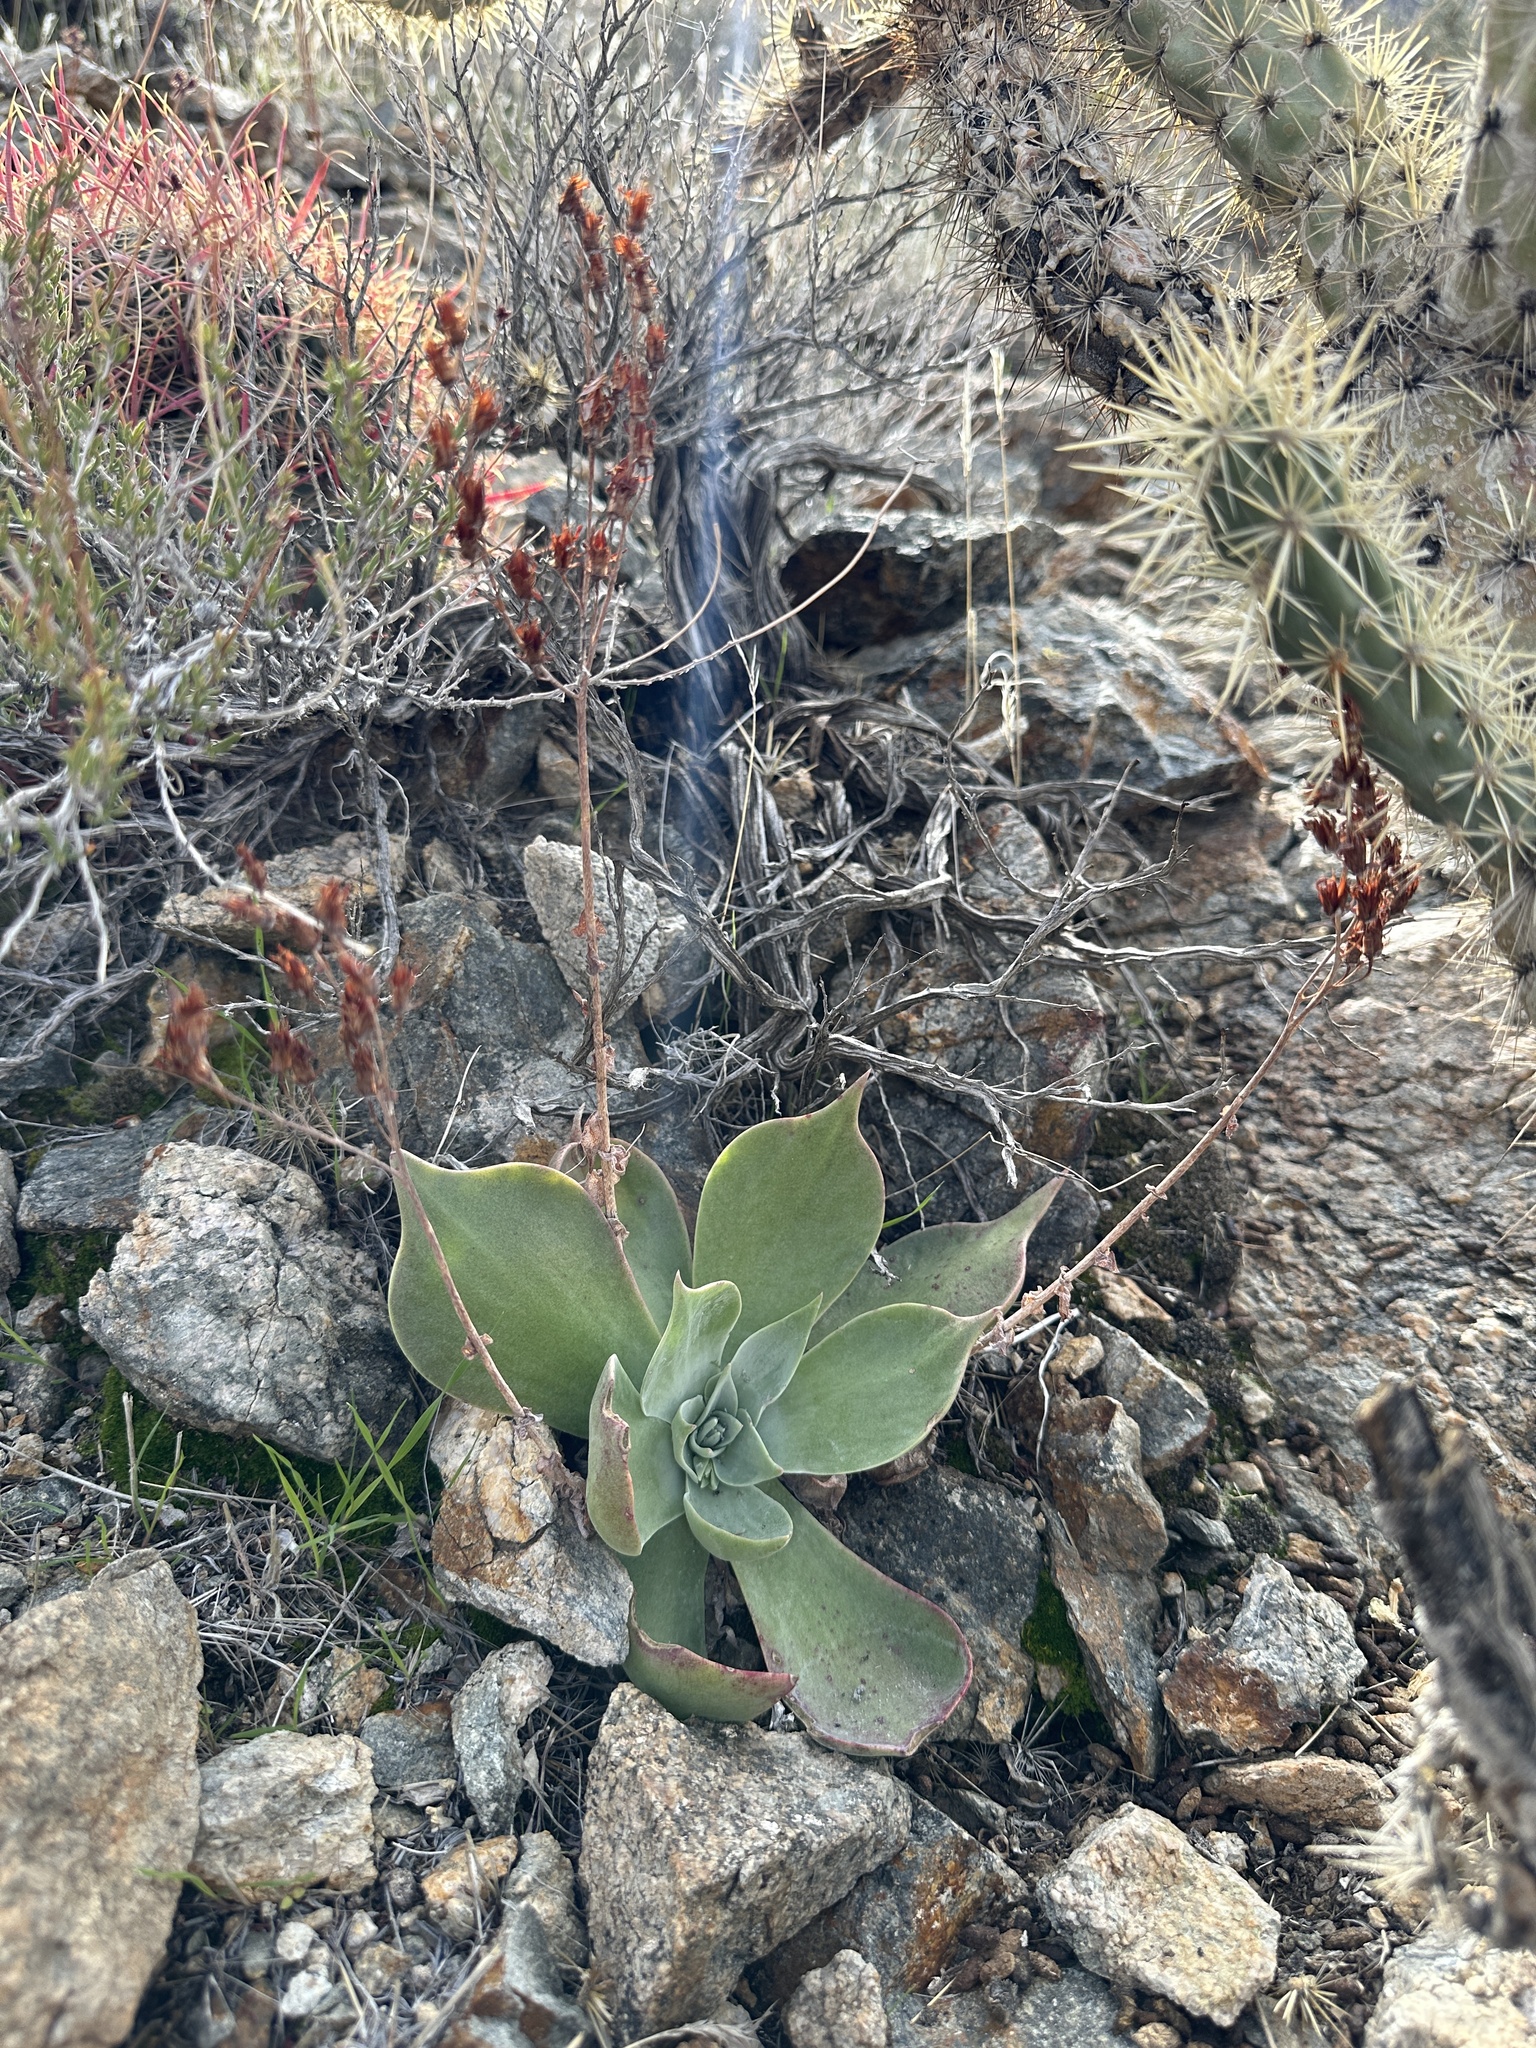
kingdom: Plantae
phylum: Tracheophyta
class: Magnoliopsida
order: Saxifragales
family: Crassulaceae
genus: Dudleya
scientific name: Dudleya arizonica
